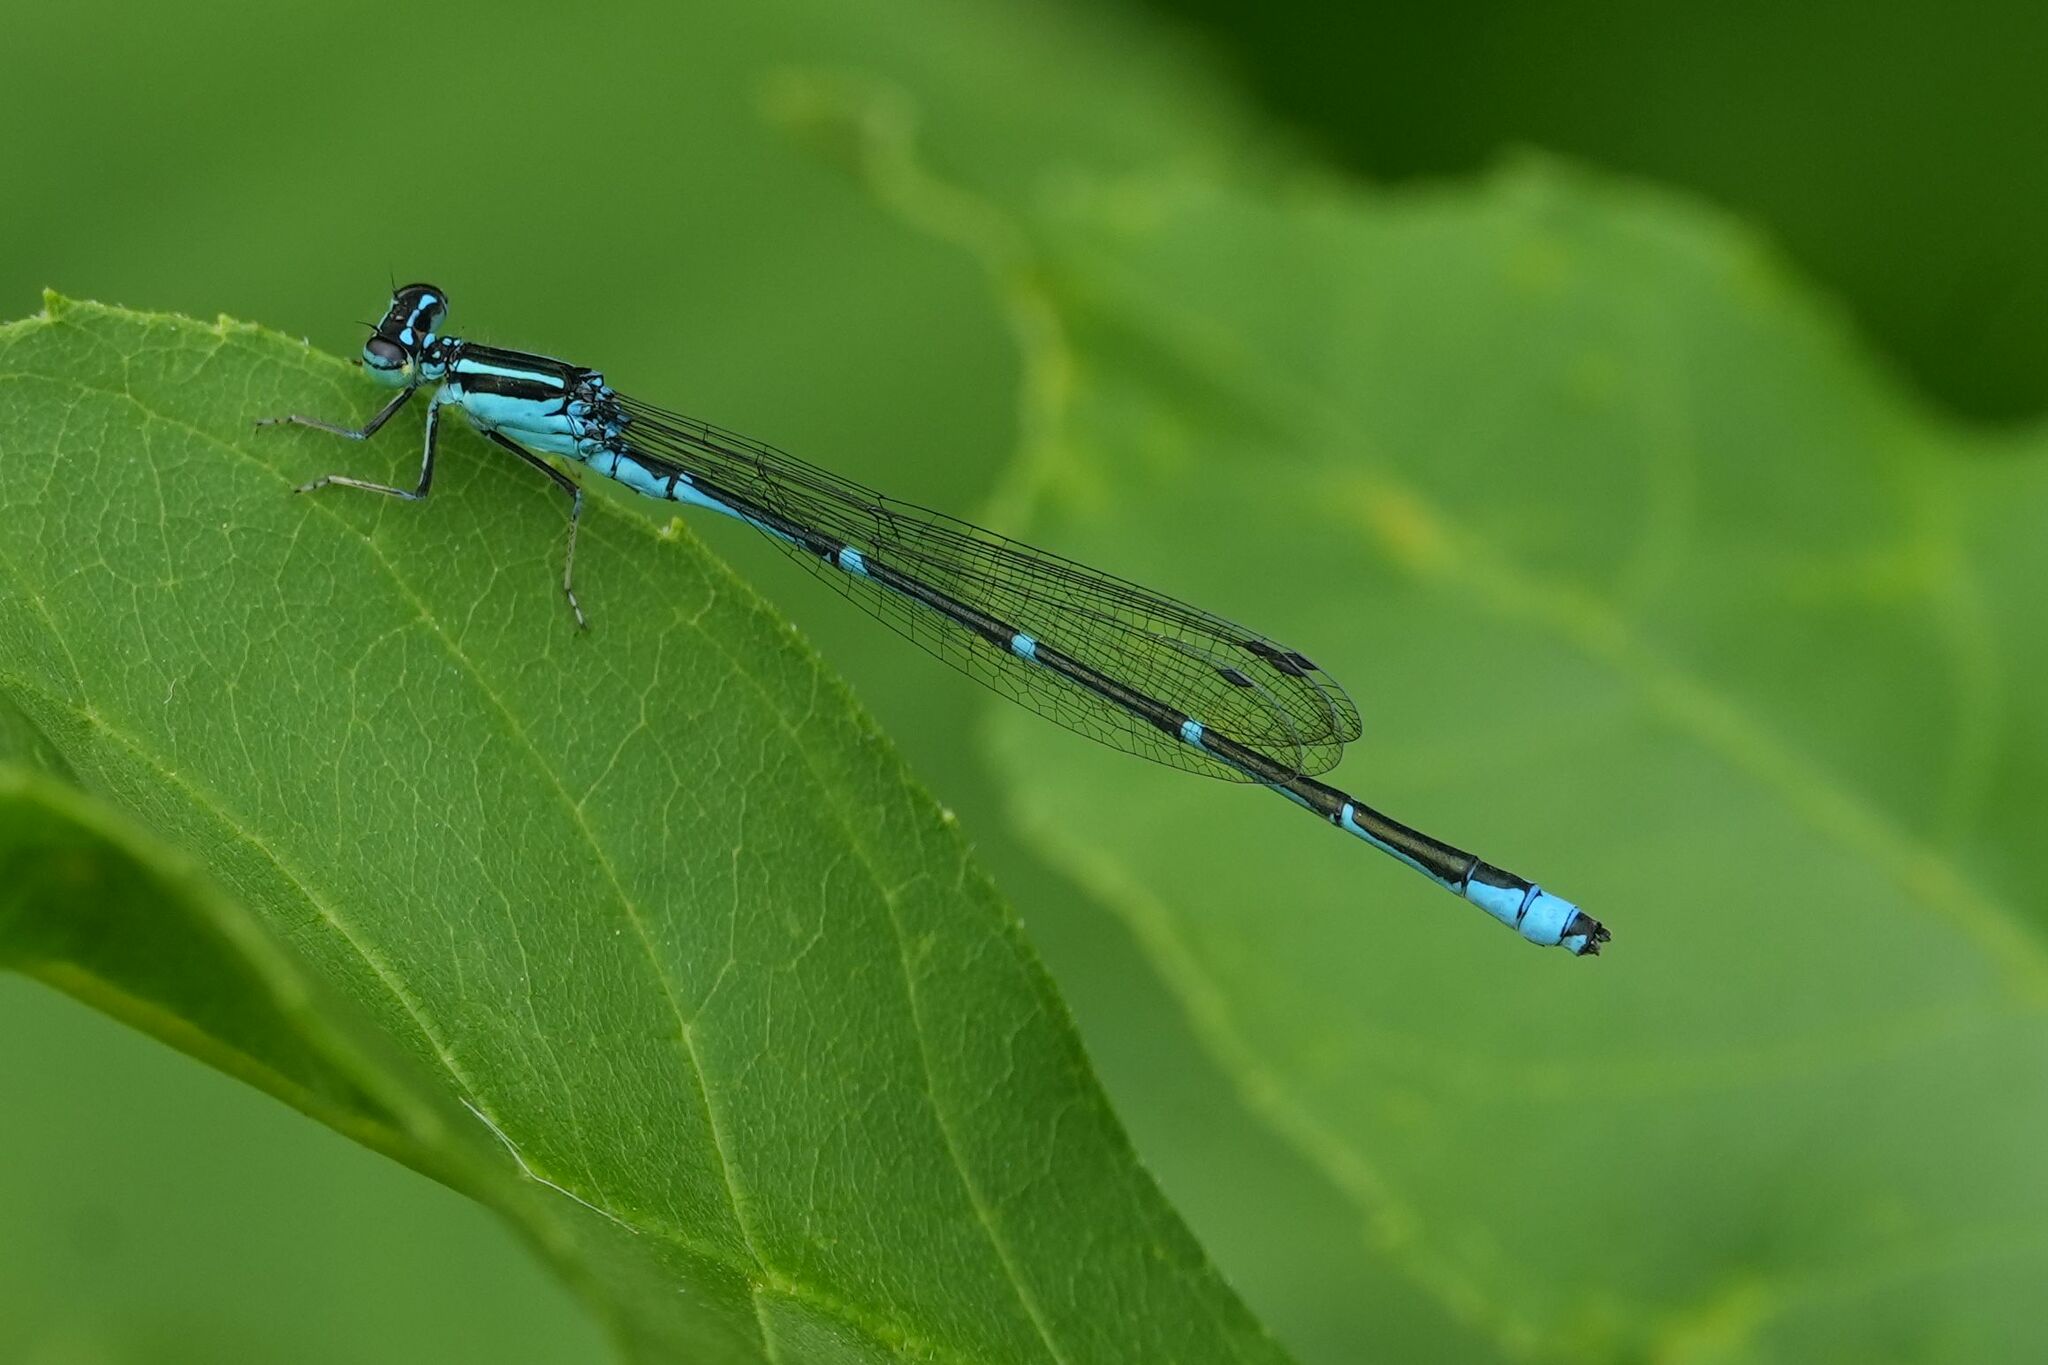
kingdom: Animalia
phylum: Arthropoda
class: Insecta
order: Odonata
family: Coenagrionidae
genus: Enallagma
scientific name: Enallagma exsulans
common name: Stream bluet
